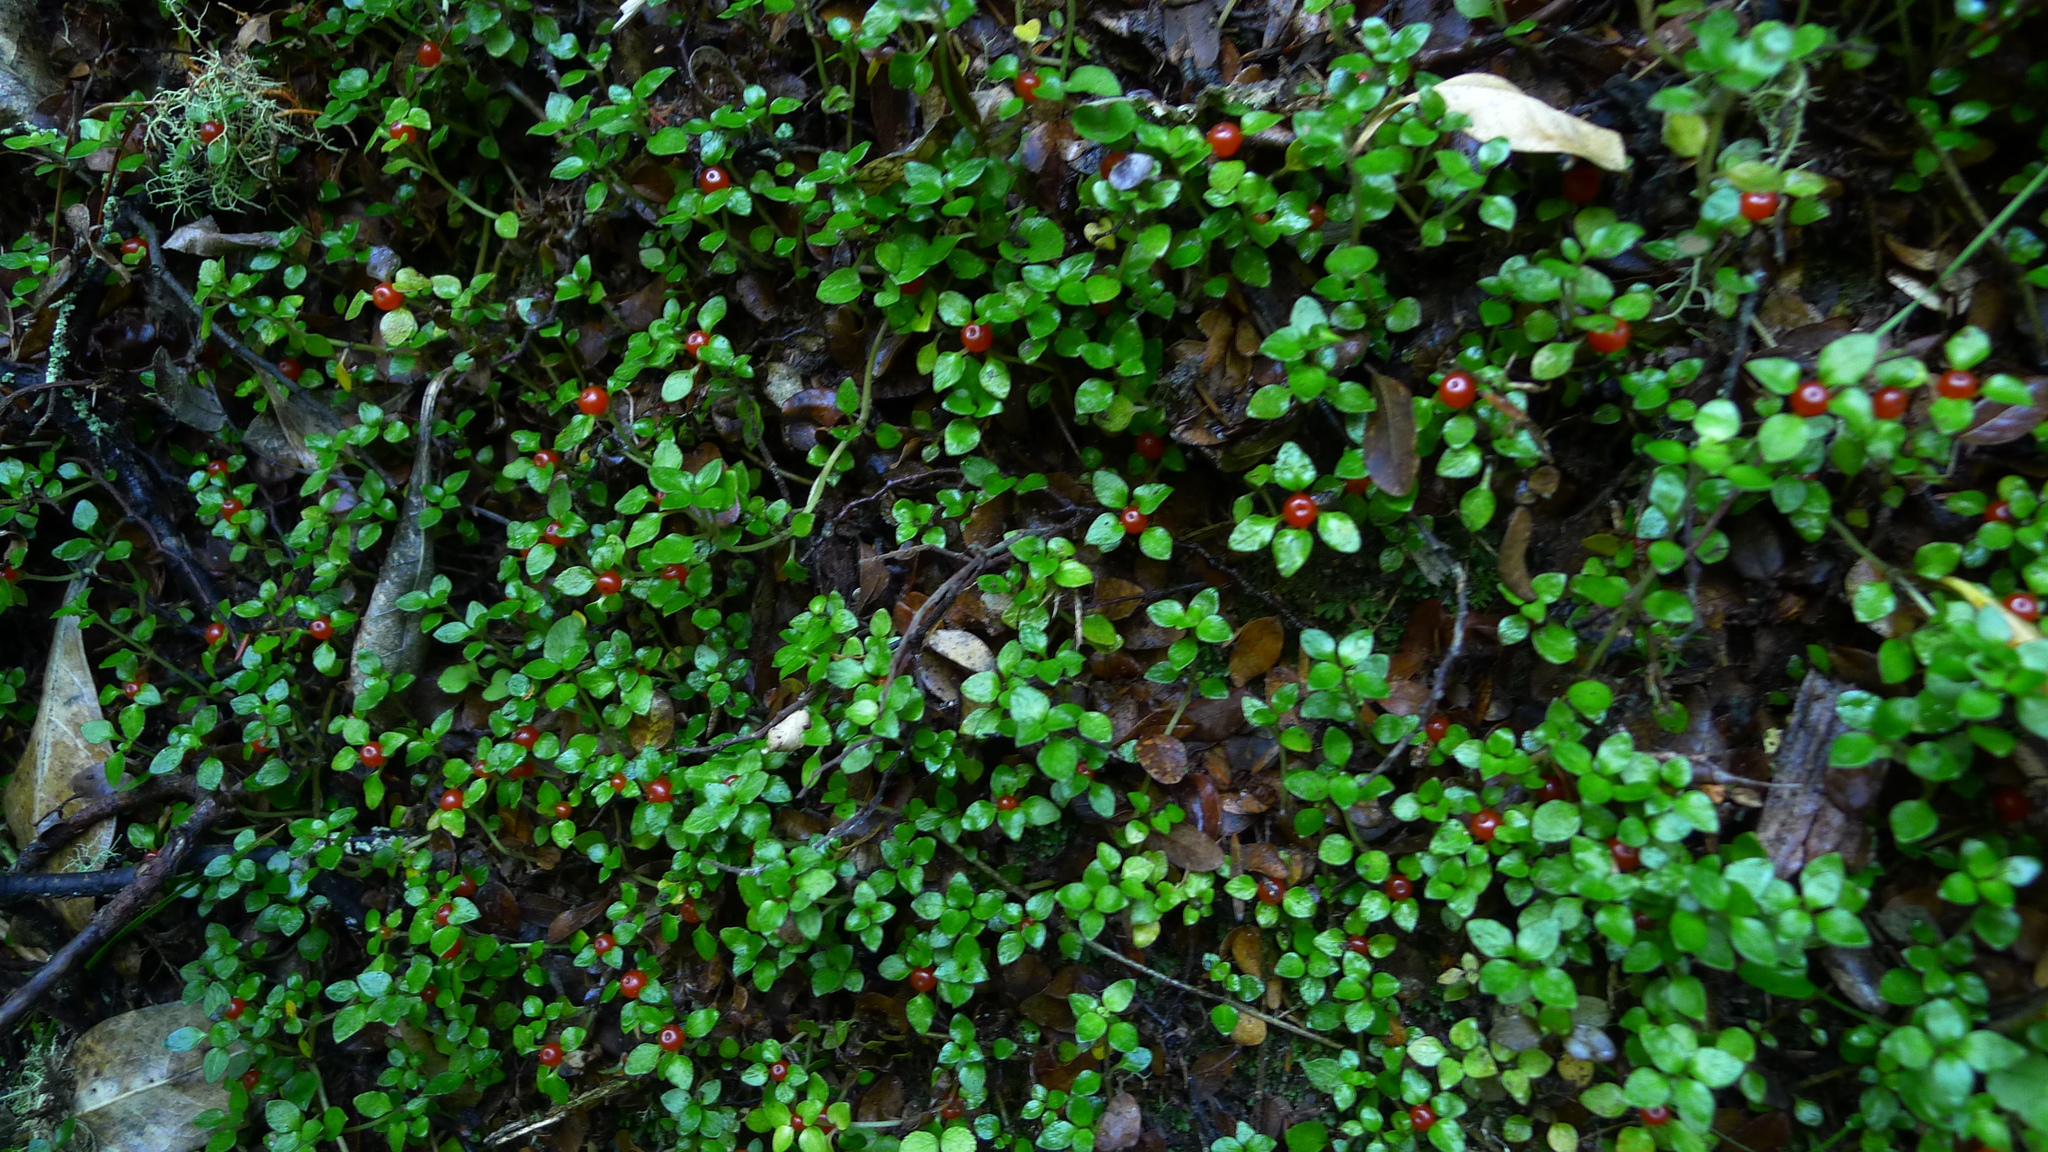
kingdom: Plantae
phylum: Tracheophyta
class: Magnoliopsida
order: Gentianales
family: Rubiaceae
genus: Nertera
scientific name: Nertera granadensis
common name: Beadplant
